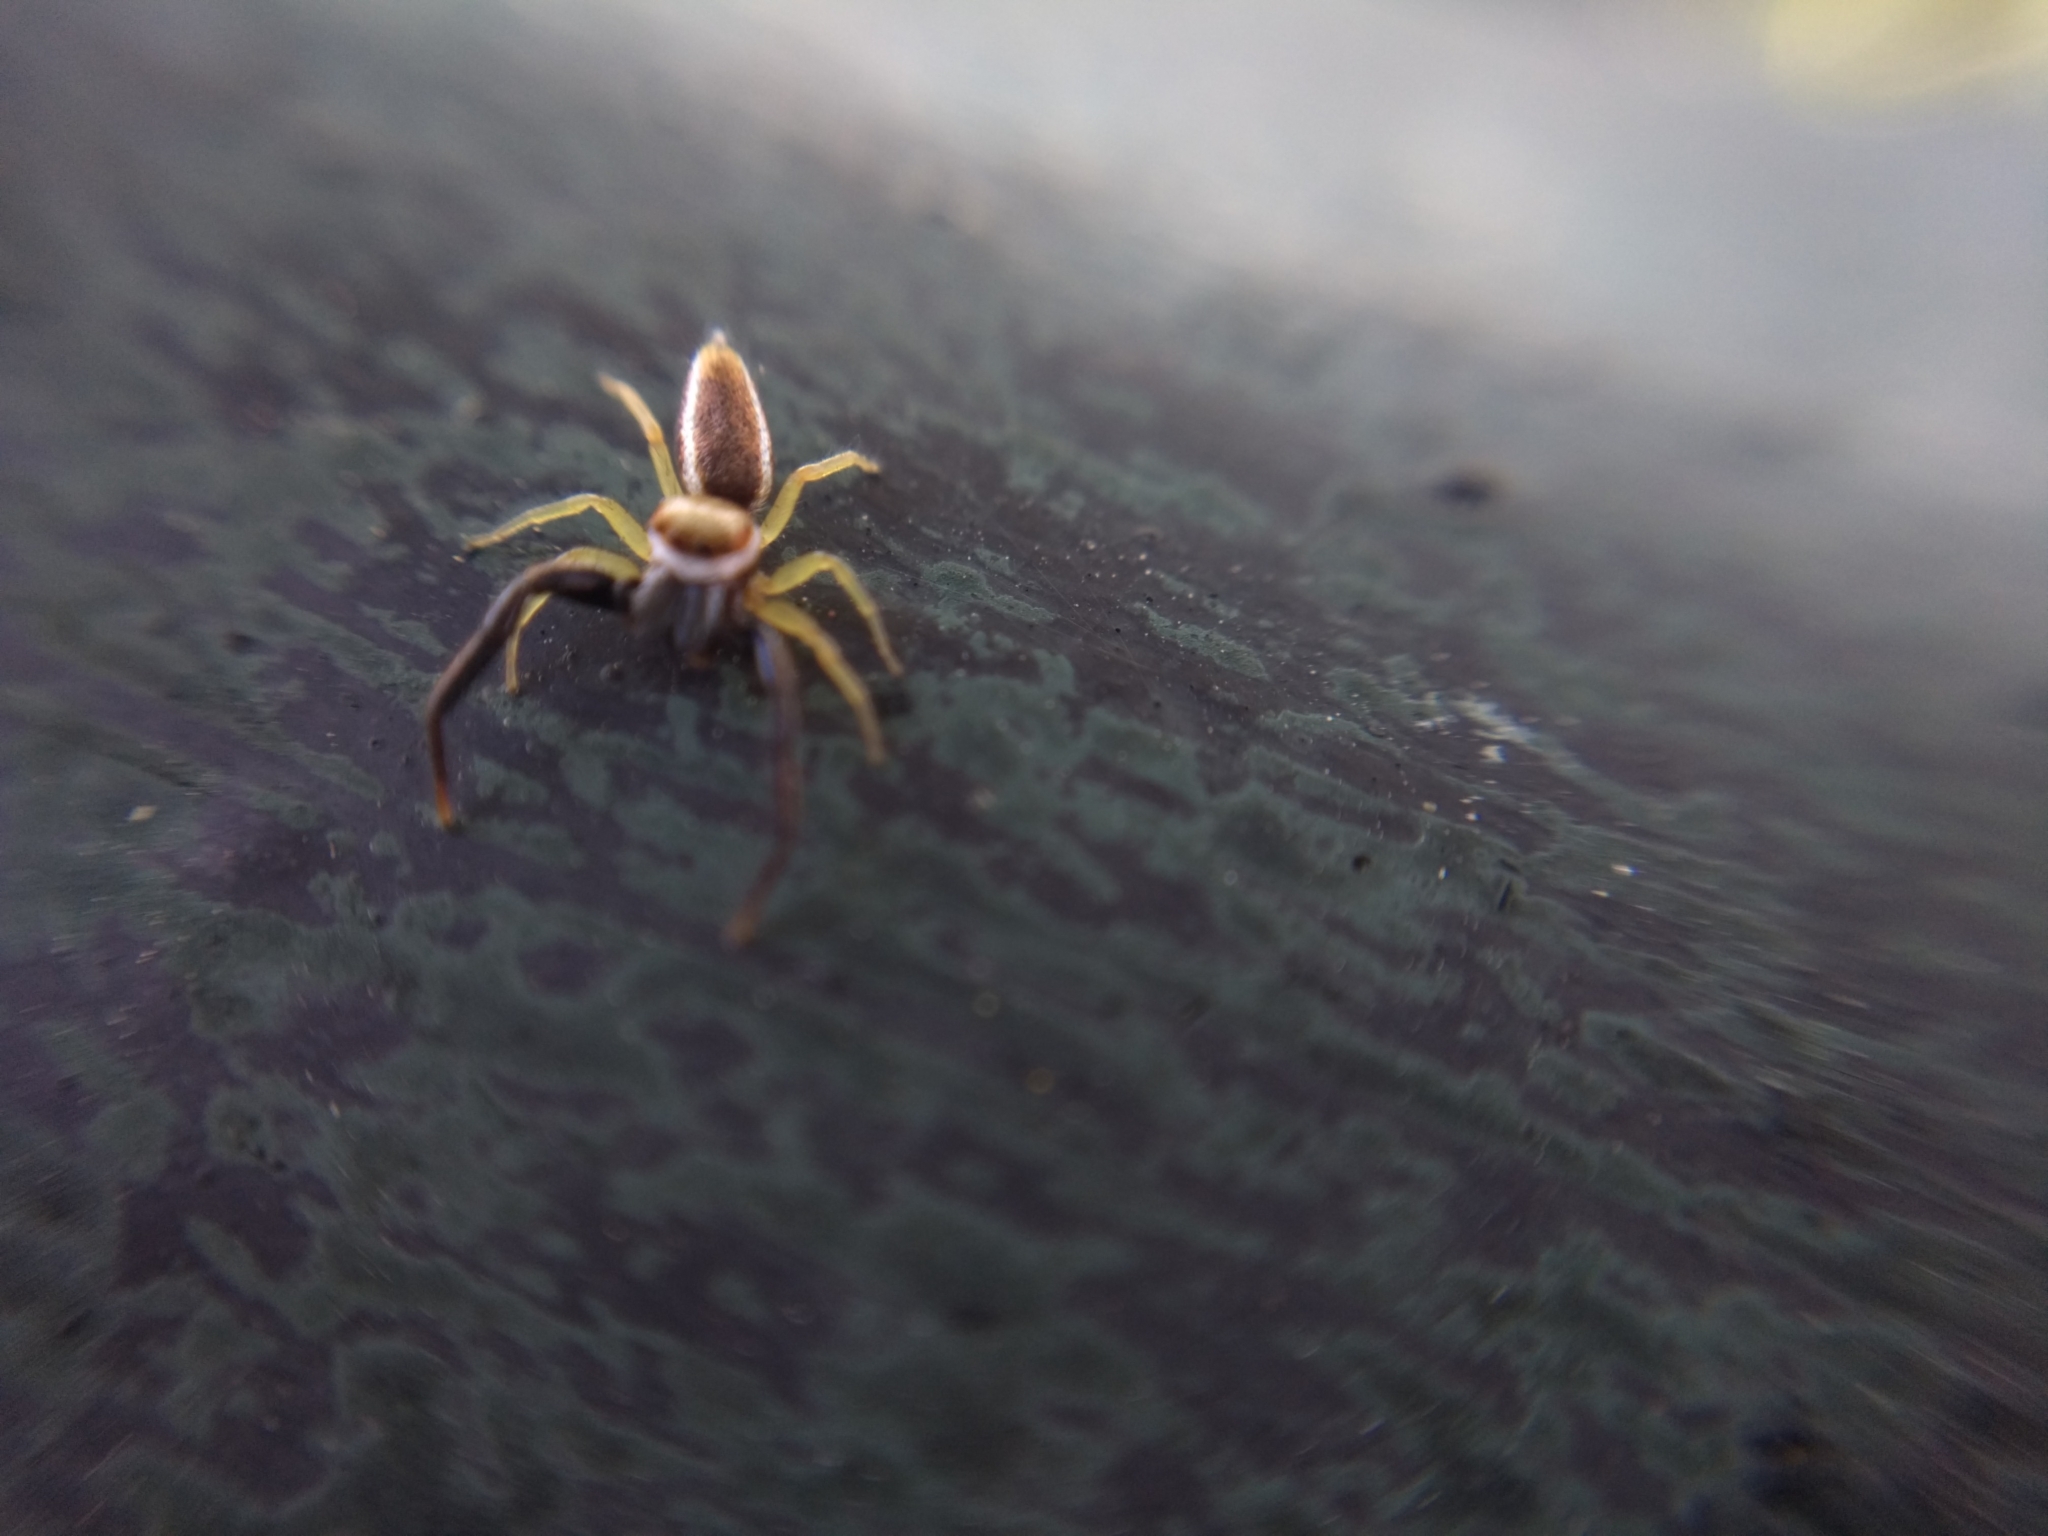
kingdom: Animalia
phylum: Arthropoda
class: Arachnida
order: Araneae
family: Salticidae
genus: Hentzia
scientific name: Hentzia palmarum
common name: Common hentz jumping spider
